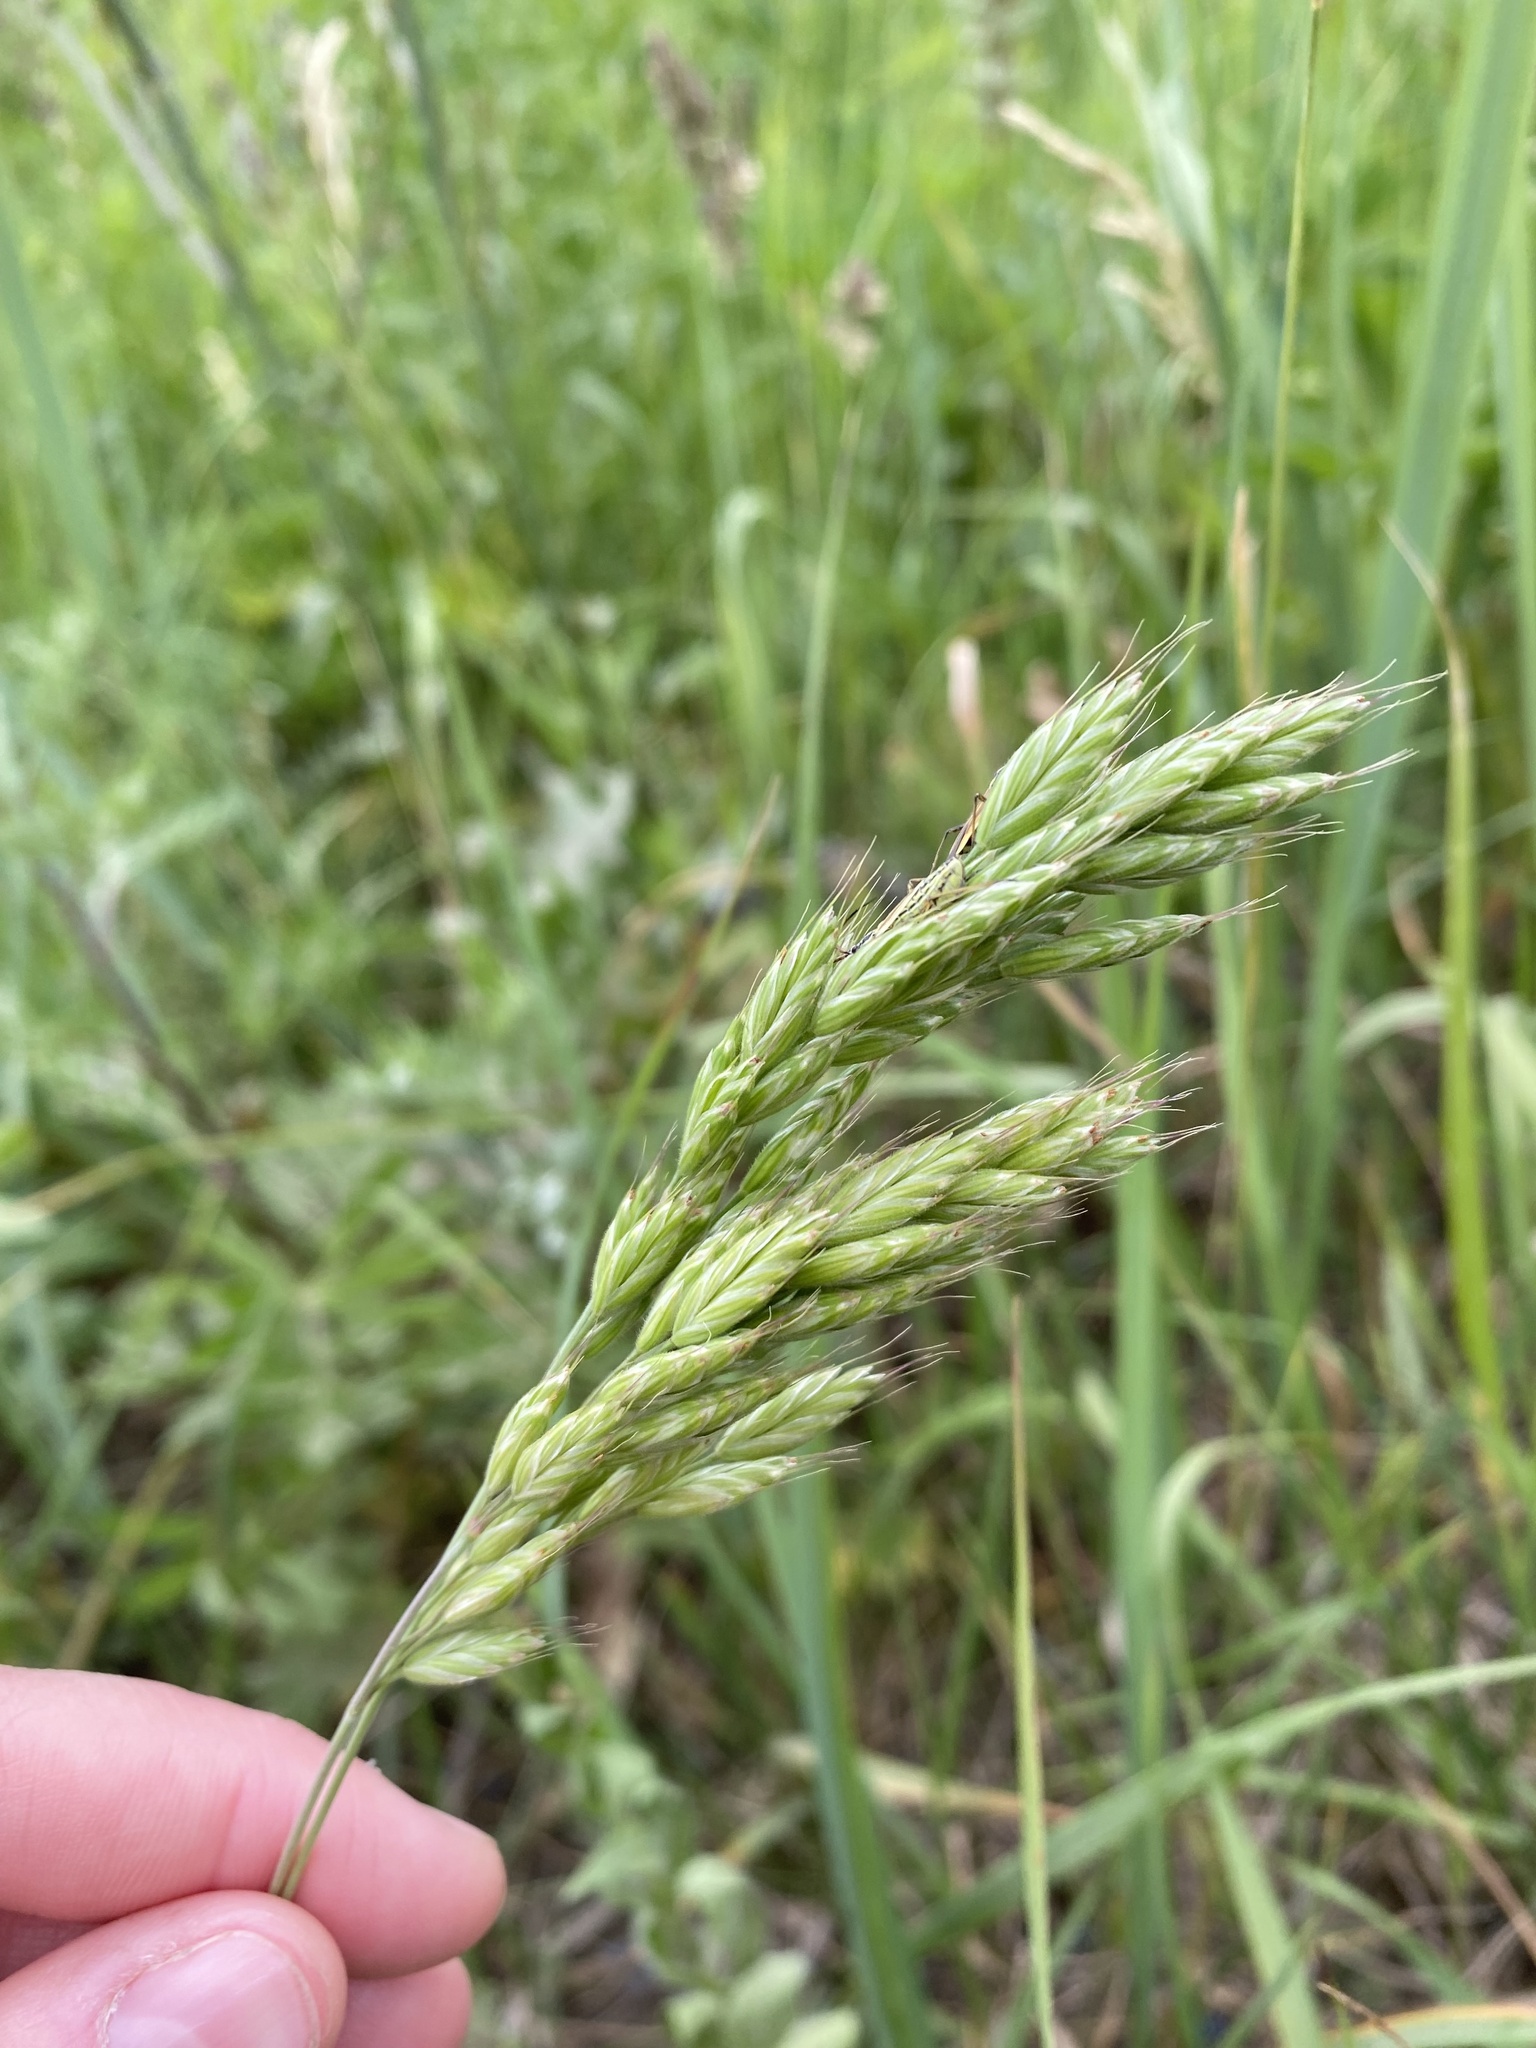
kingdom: Plantae
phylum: Tracheophyta
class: Liliopsida
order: Poales
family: Poaceae
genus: Bromus
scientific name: Bromus hordeaceus
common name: Soft brome
